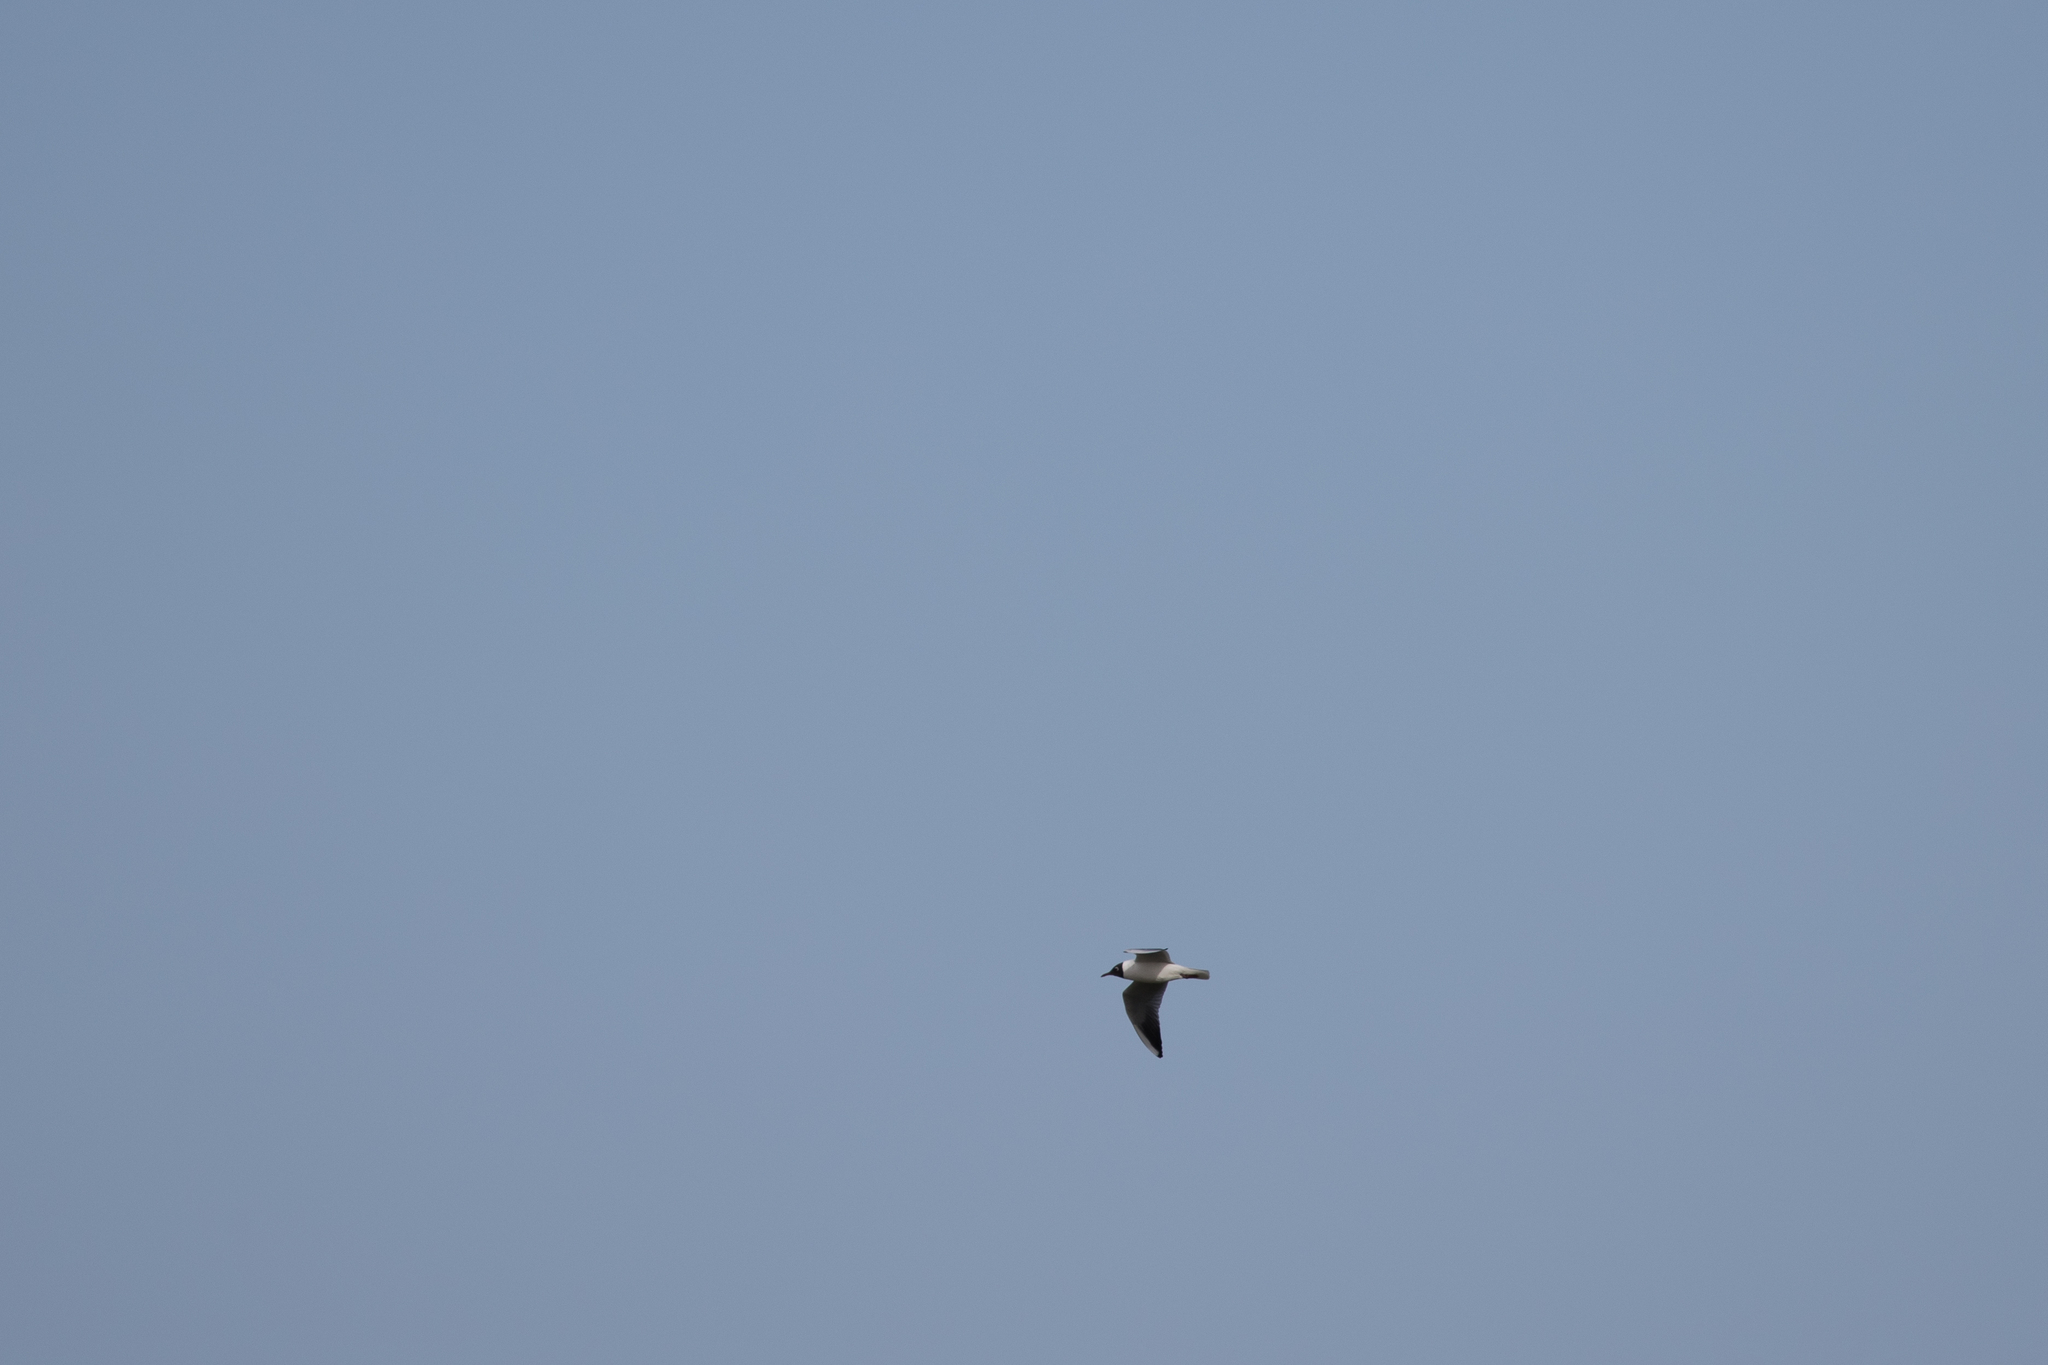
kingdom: Animalia
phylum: Chordata
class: Aves
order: Charadriiformes
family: Laridae
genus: Chroicocephalus
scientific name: Chroicocephalus ridibundus
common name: Black-headed gull
